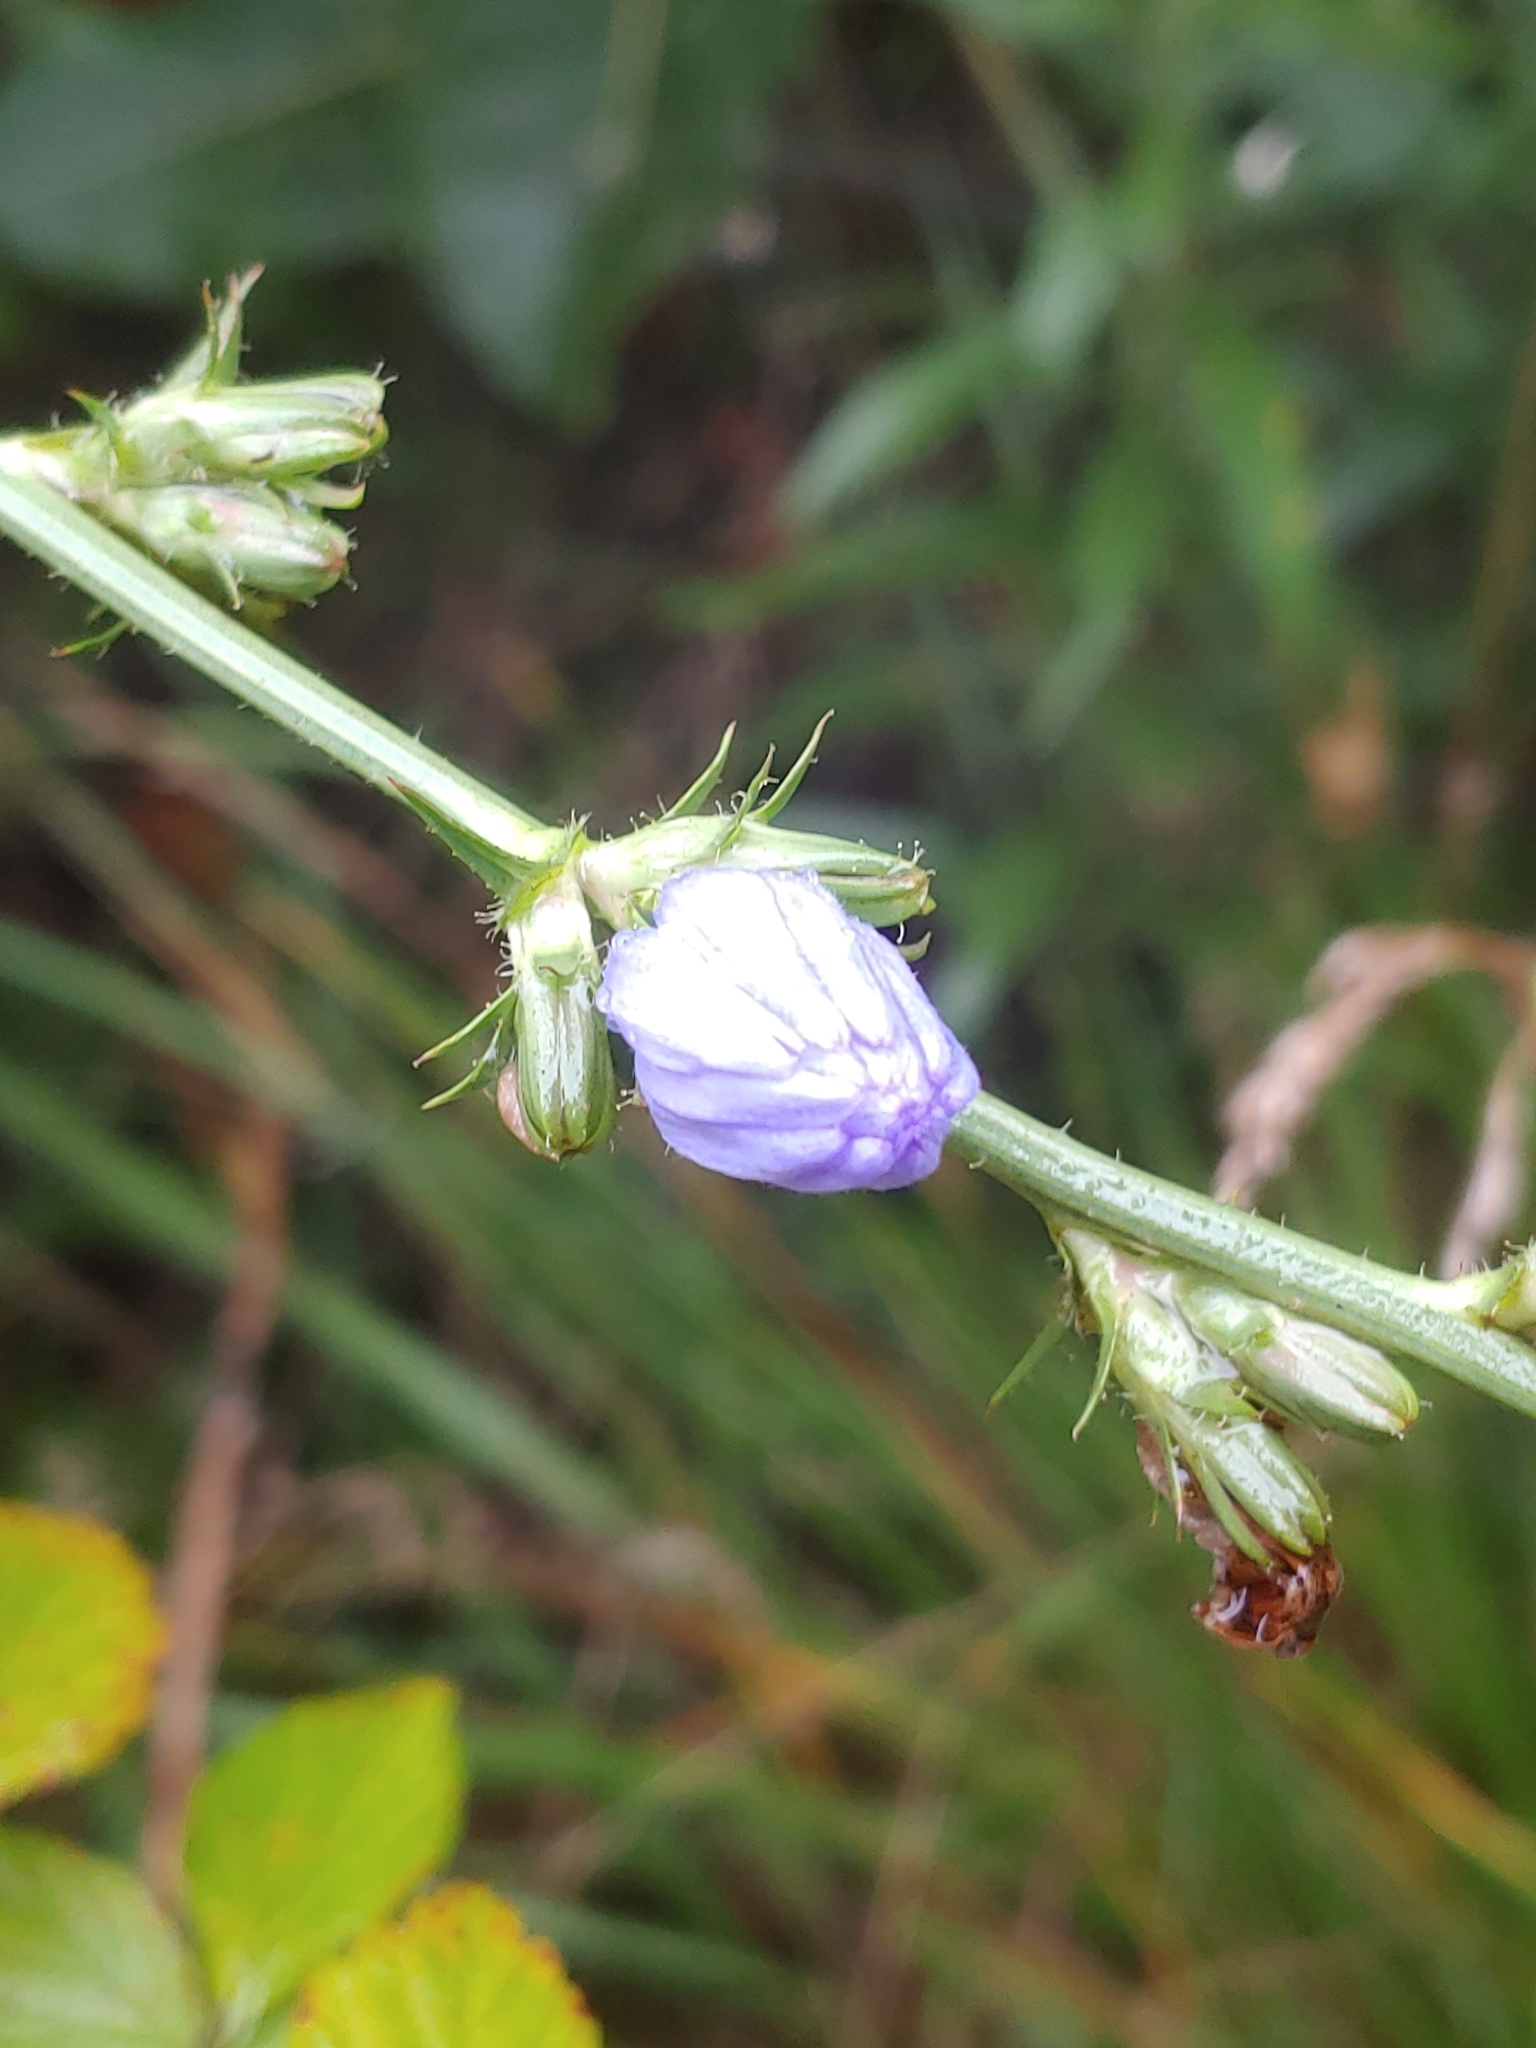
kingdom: Plantae
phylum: Tracheophyta
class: Magnoliopsida
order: Asterales
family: Asteraceae
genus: Cichorium
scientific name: Cichorium intybus
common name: Chicory
